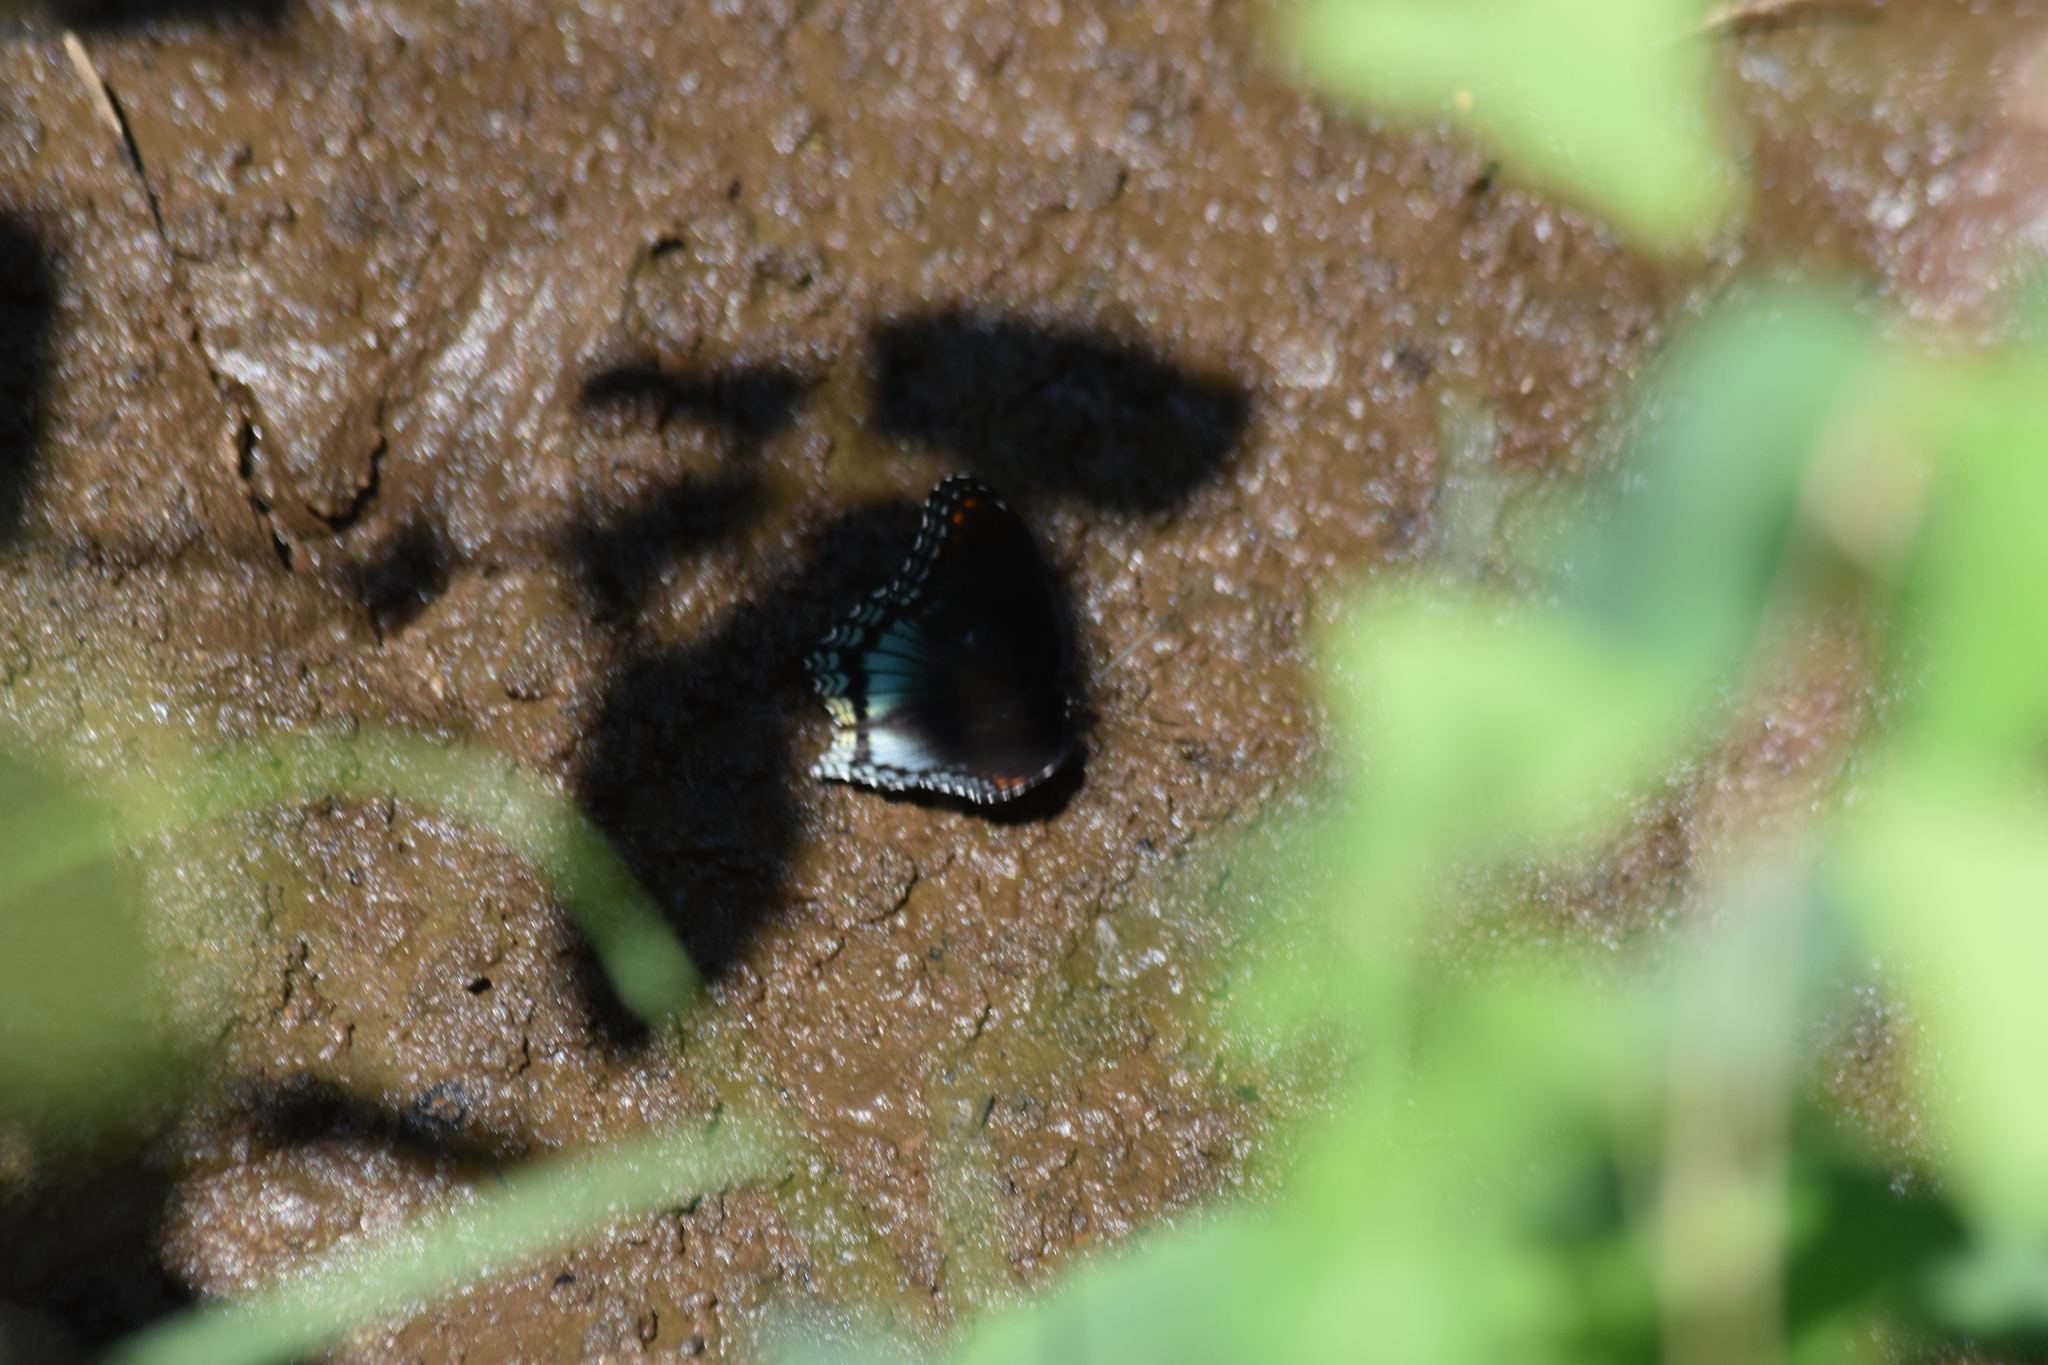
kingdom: Animalia
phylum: Arthropoda
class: Insecta
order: Lepidoptera
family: Nymphalidae
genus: Limenitis
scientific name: Limenitis arthemis
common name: Red-spotted admiral
